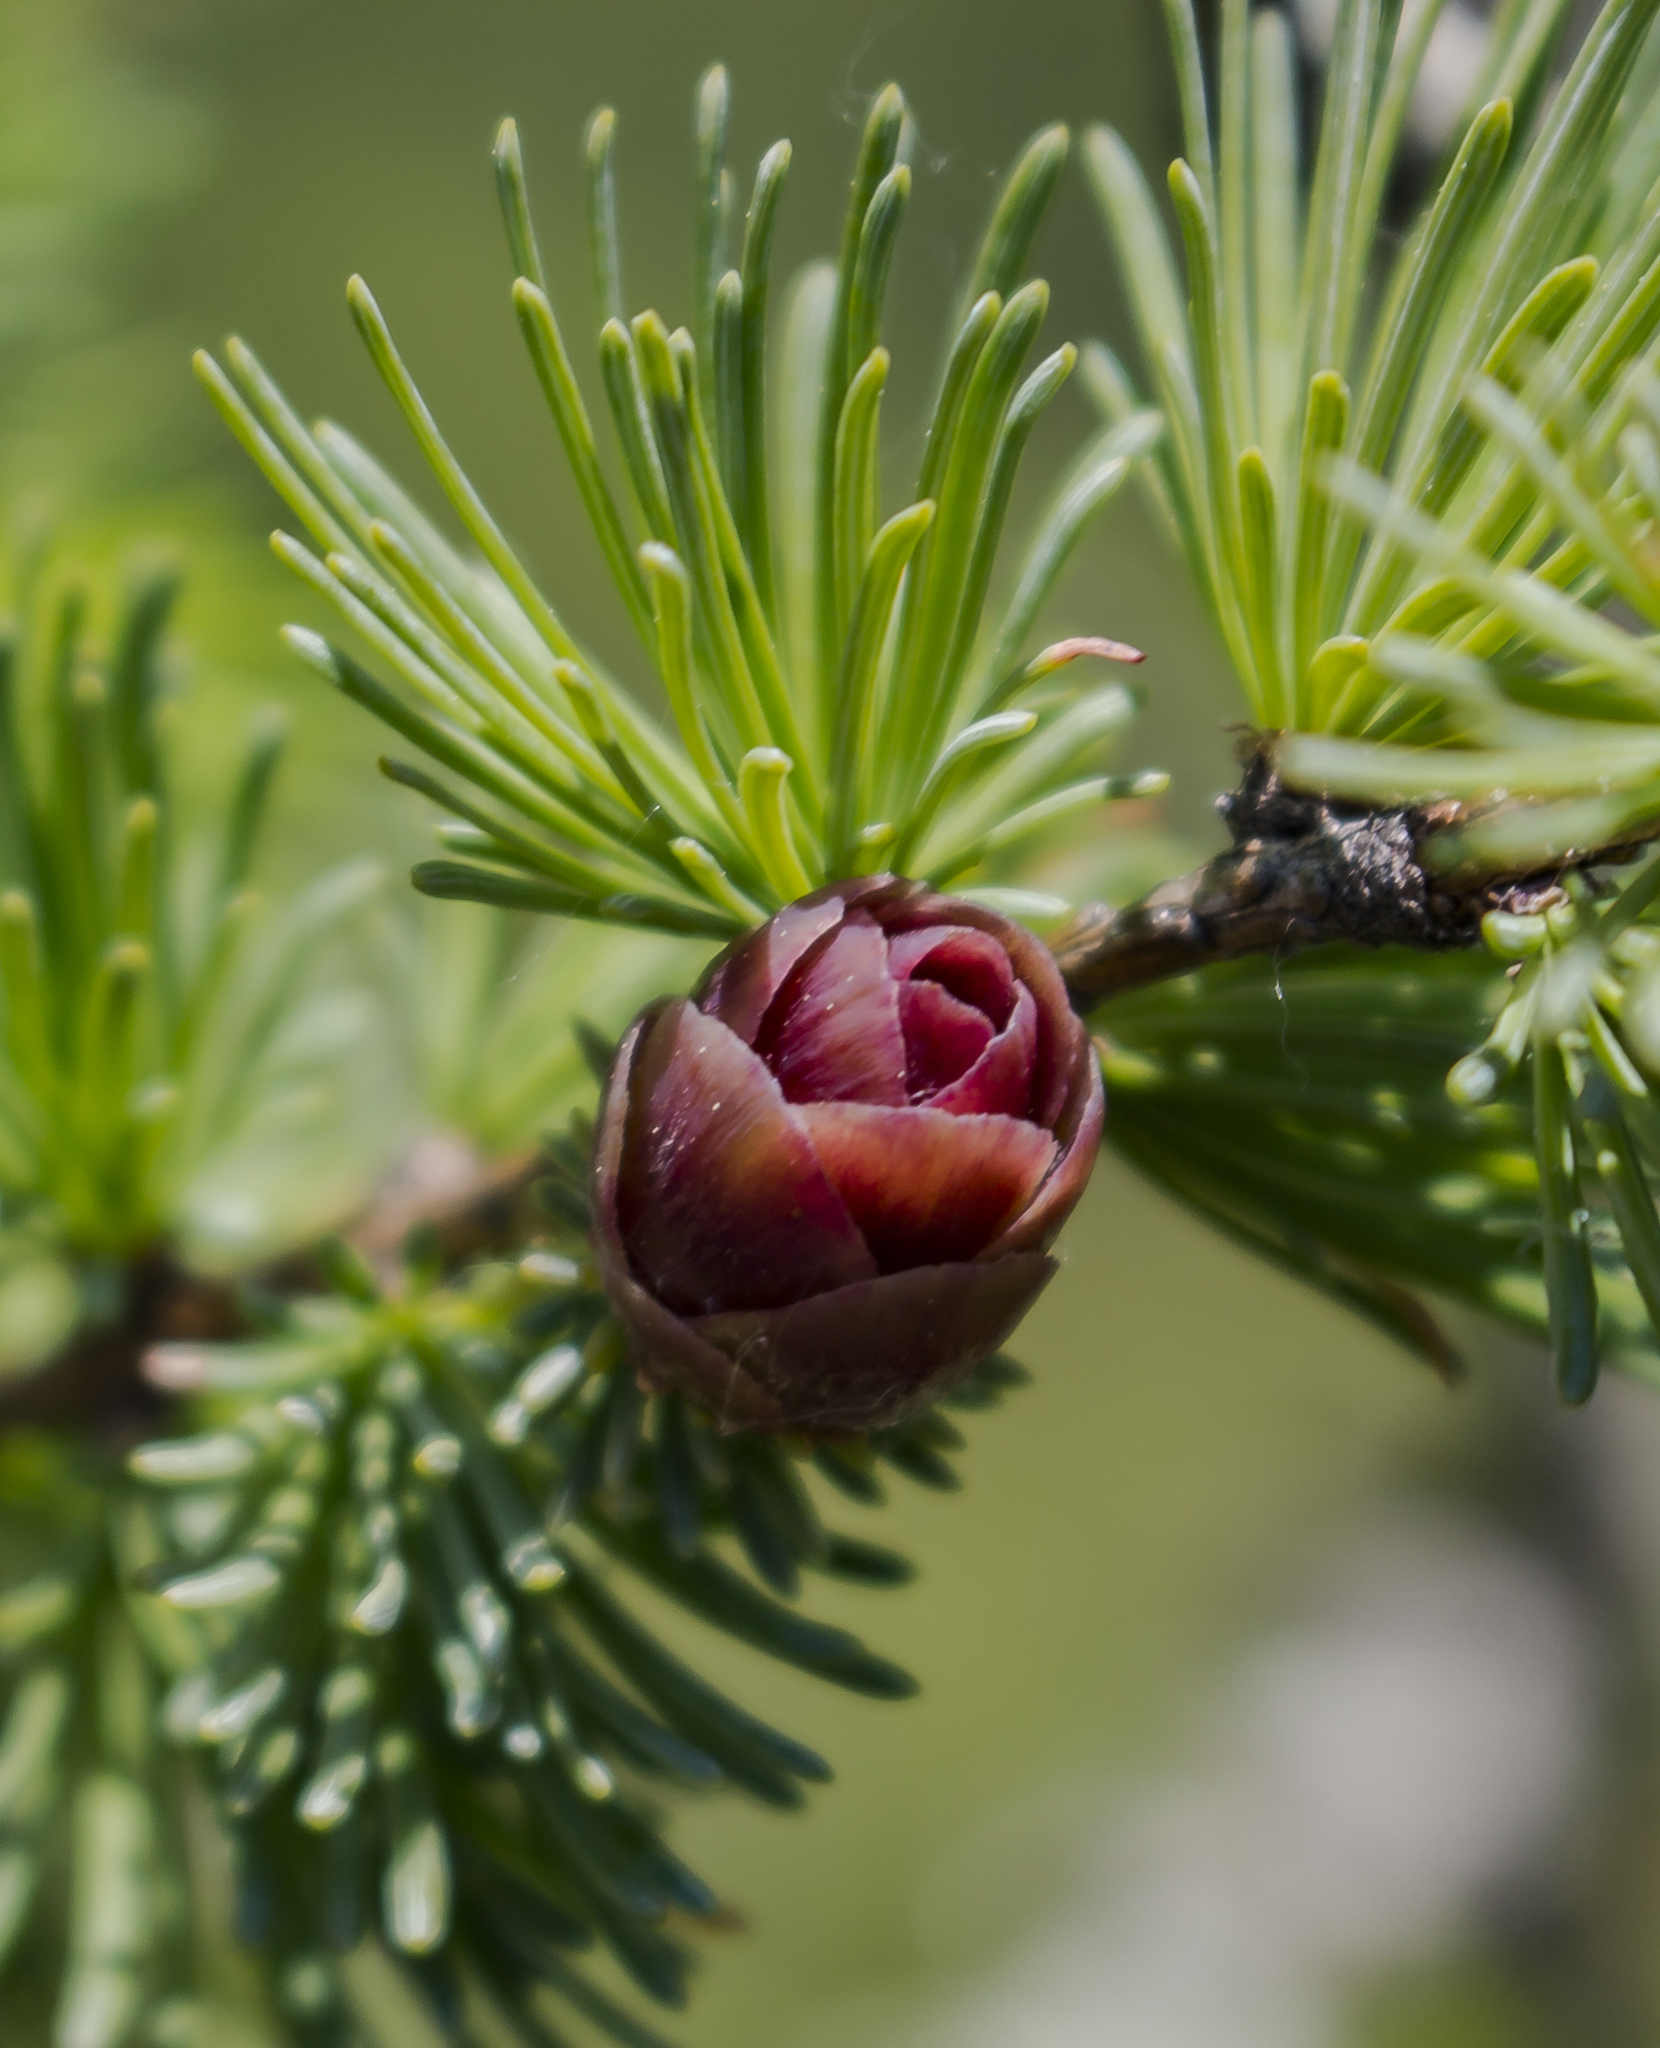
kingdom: Plantae
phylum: Tracheophyta
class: Pinopsida
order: Pinales
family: Pinaceae
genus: Larix
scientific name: Larix laricina
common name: American larch
